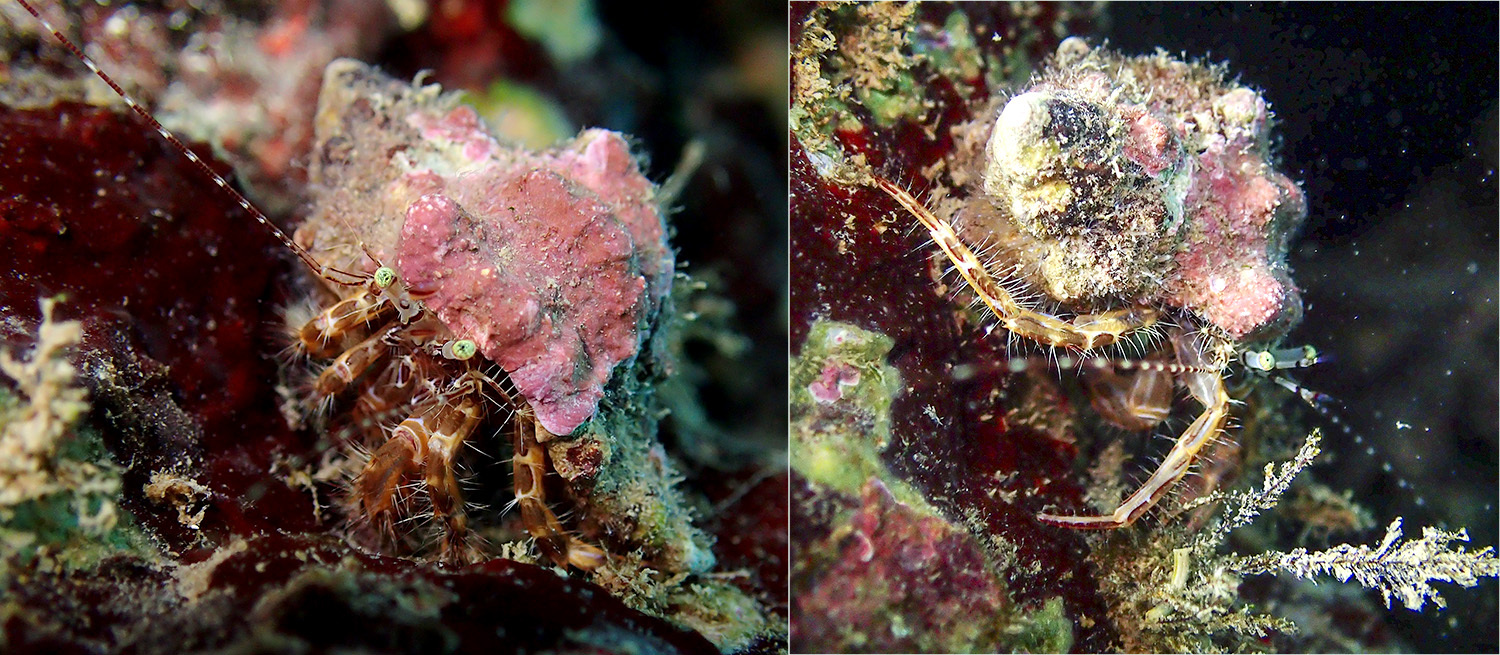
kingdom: Animalia
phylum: Arthropoda
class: Malacostraca
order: Decapoda
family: Paguridae
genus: Pagurus
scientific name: Pagurus anachoretus
